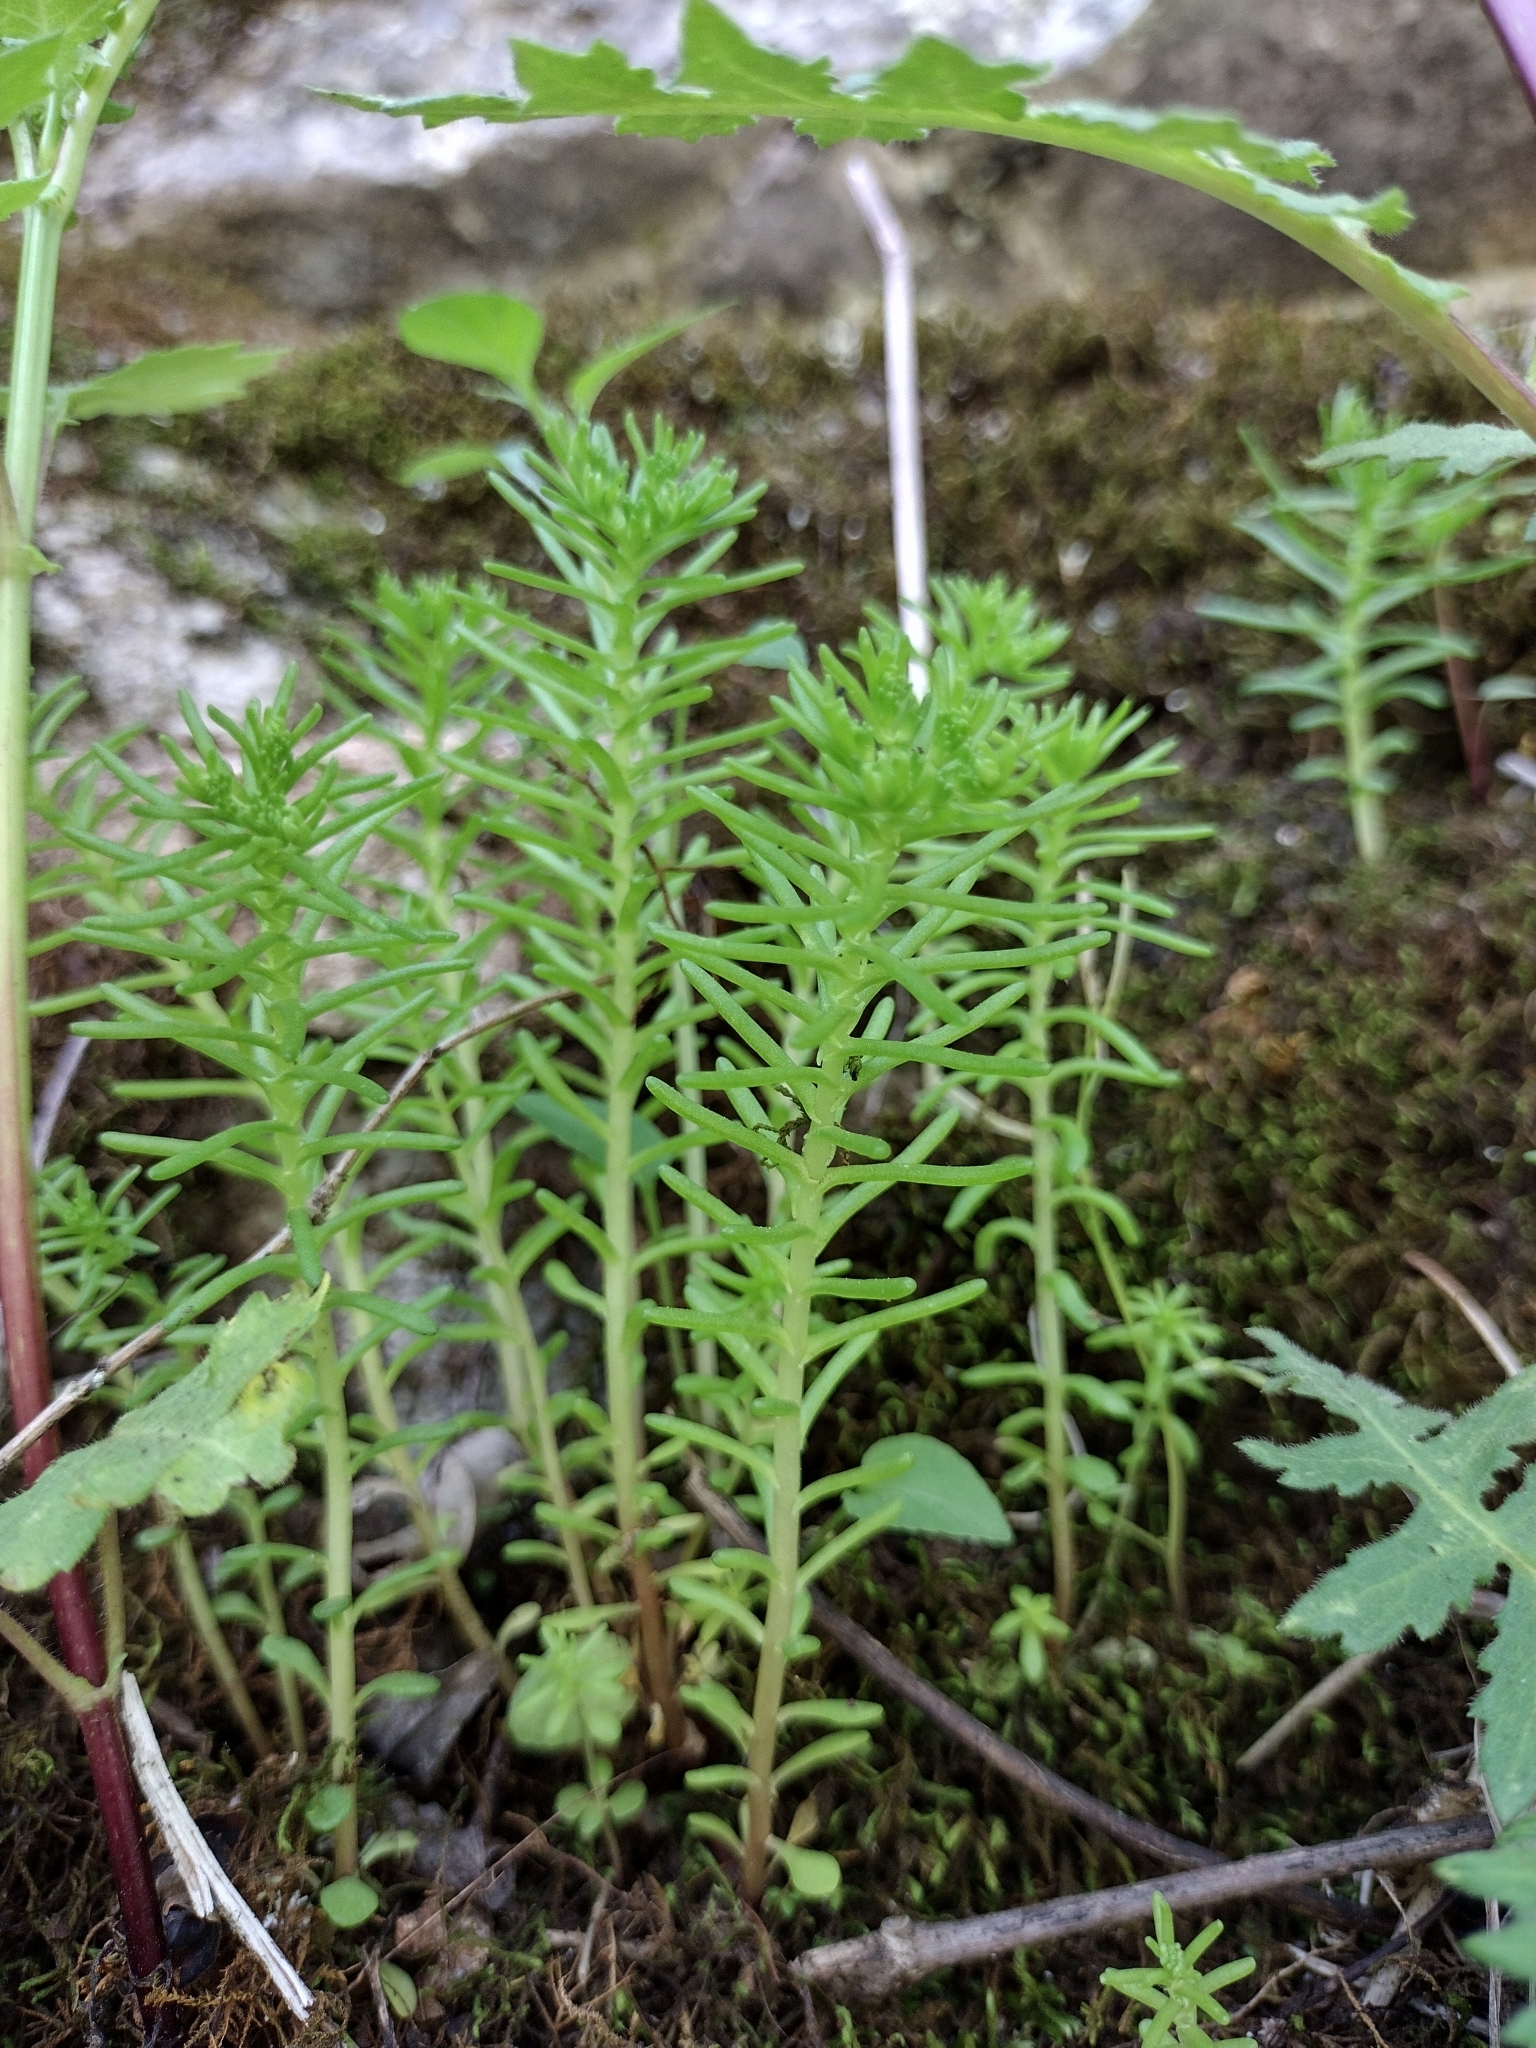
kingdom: Plantae
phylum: Tracheophyta
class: Magnoliopsida
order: Saxifragales
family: Crassulaceae
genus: Sedum
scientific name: Sedum pulchellum
